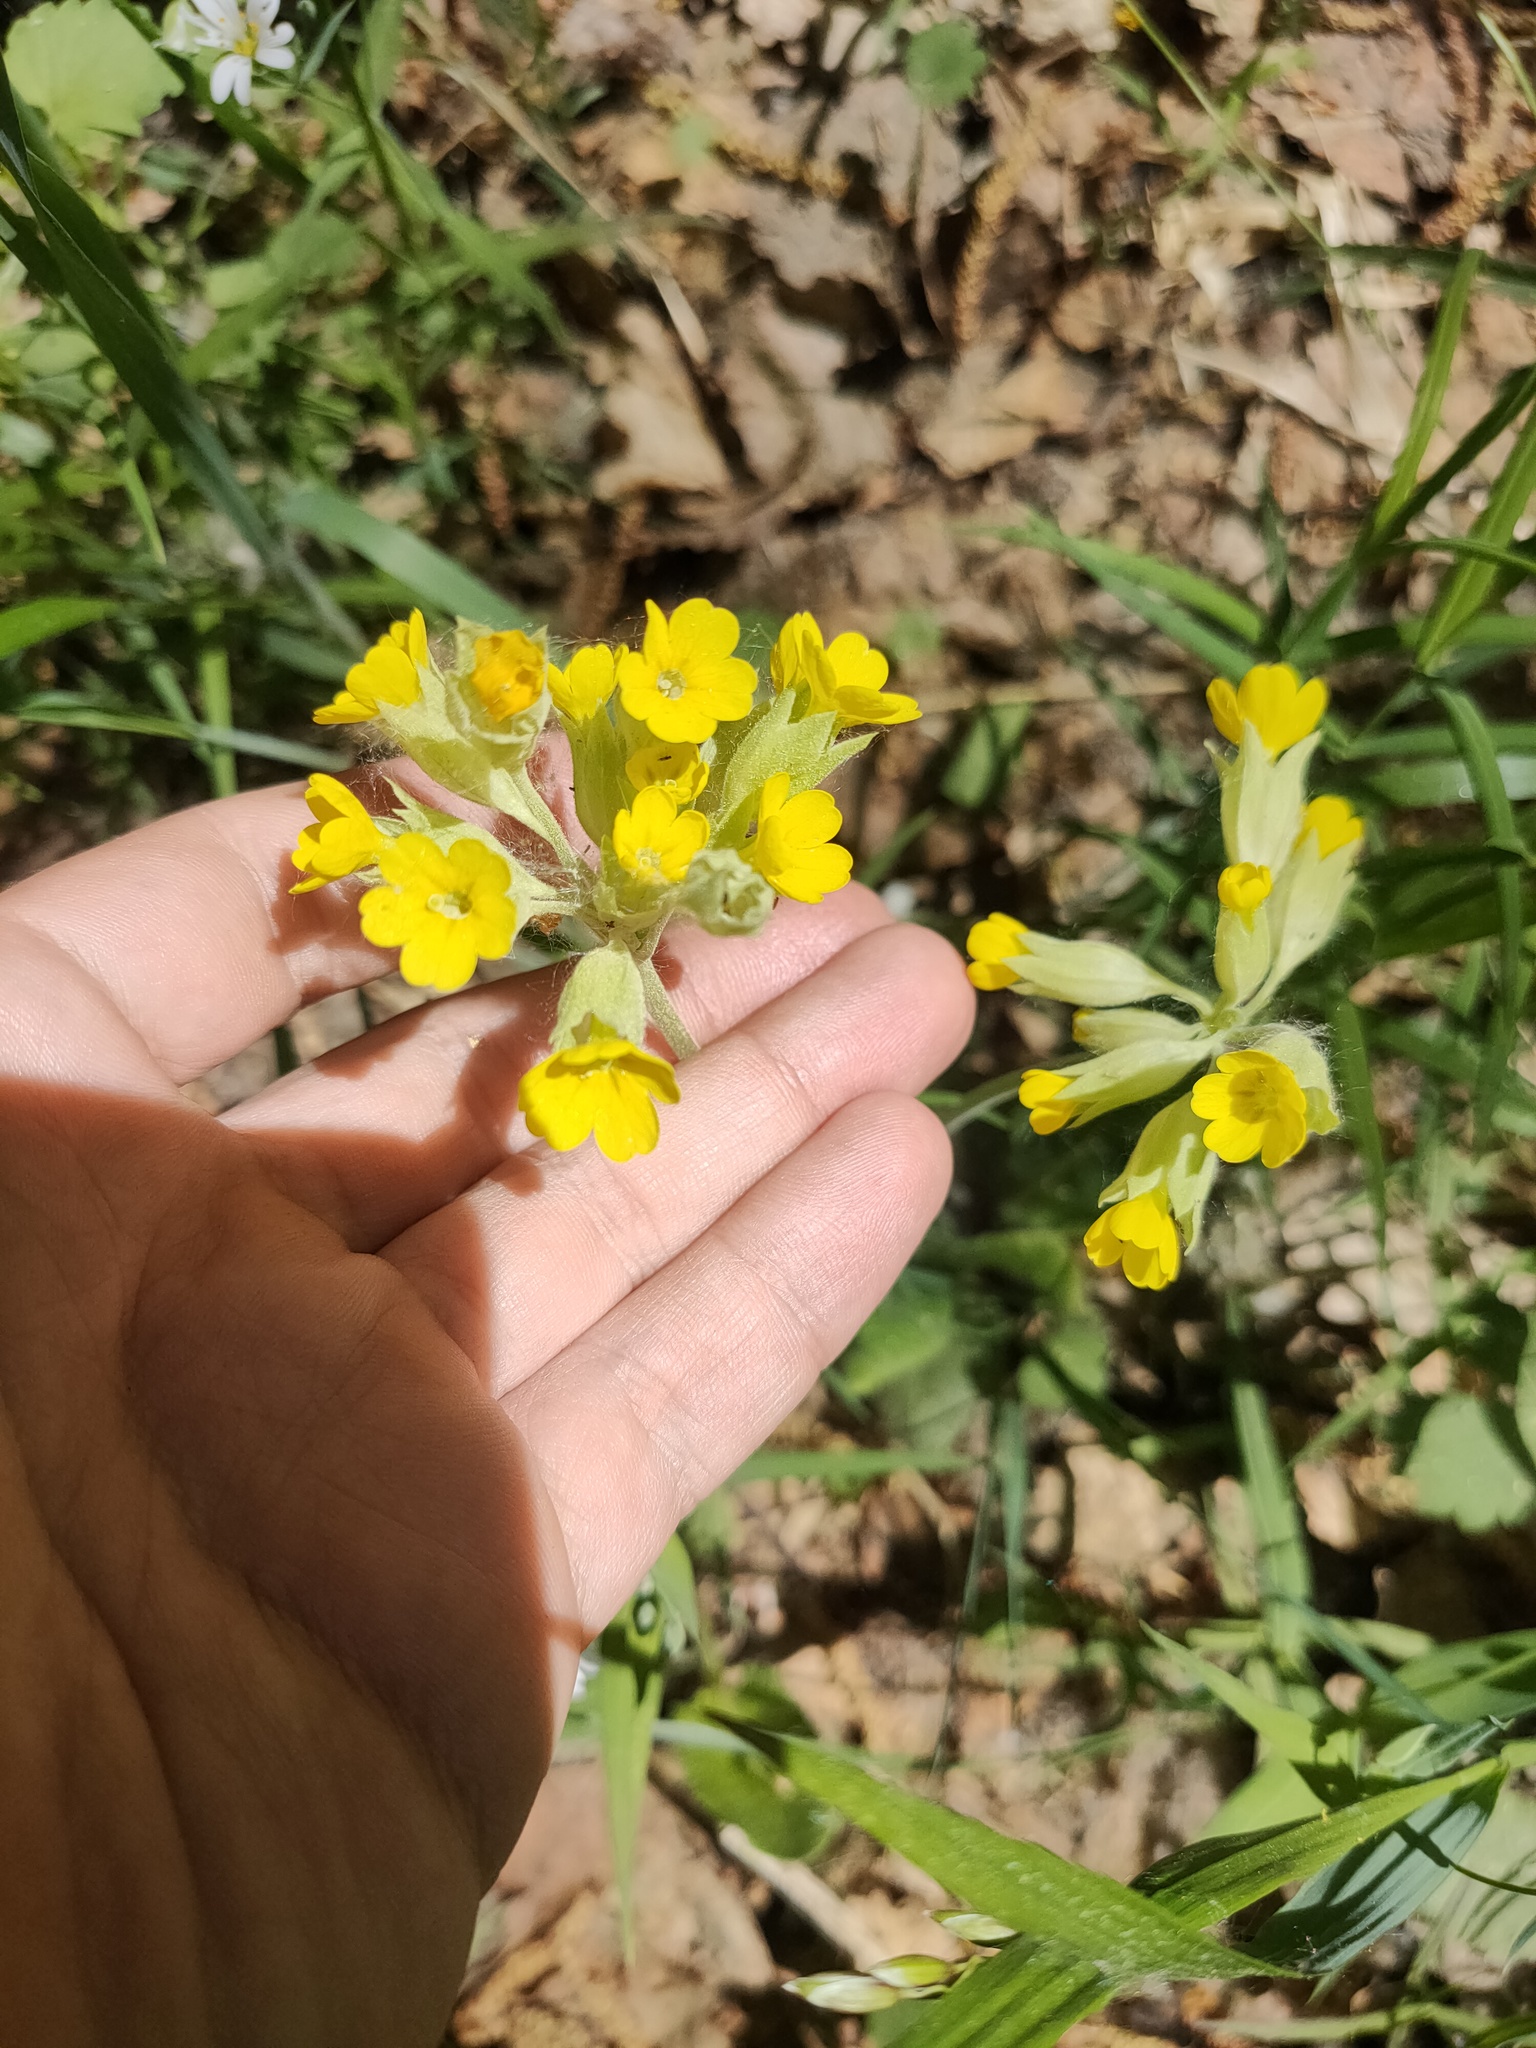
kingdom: Plantae
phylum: Tracheophyta
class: Magnoliopsida
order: Ericales
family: Primulaceae
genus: Primula
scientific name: Primula veris
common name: Cowslip
